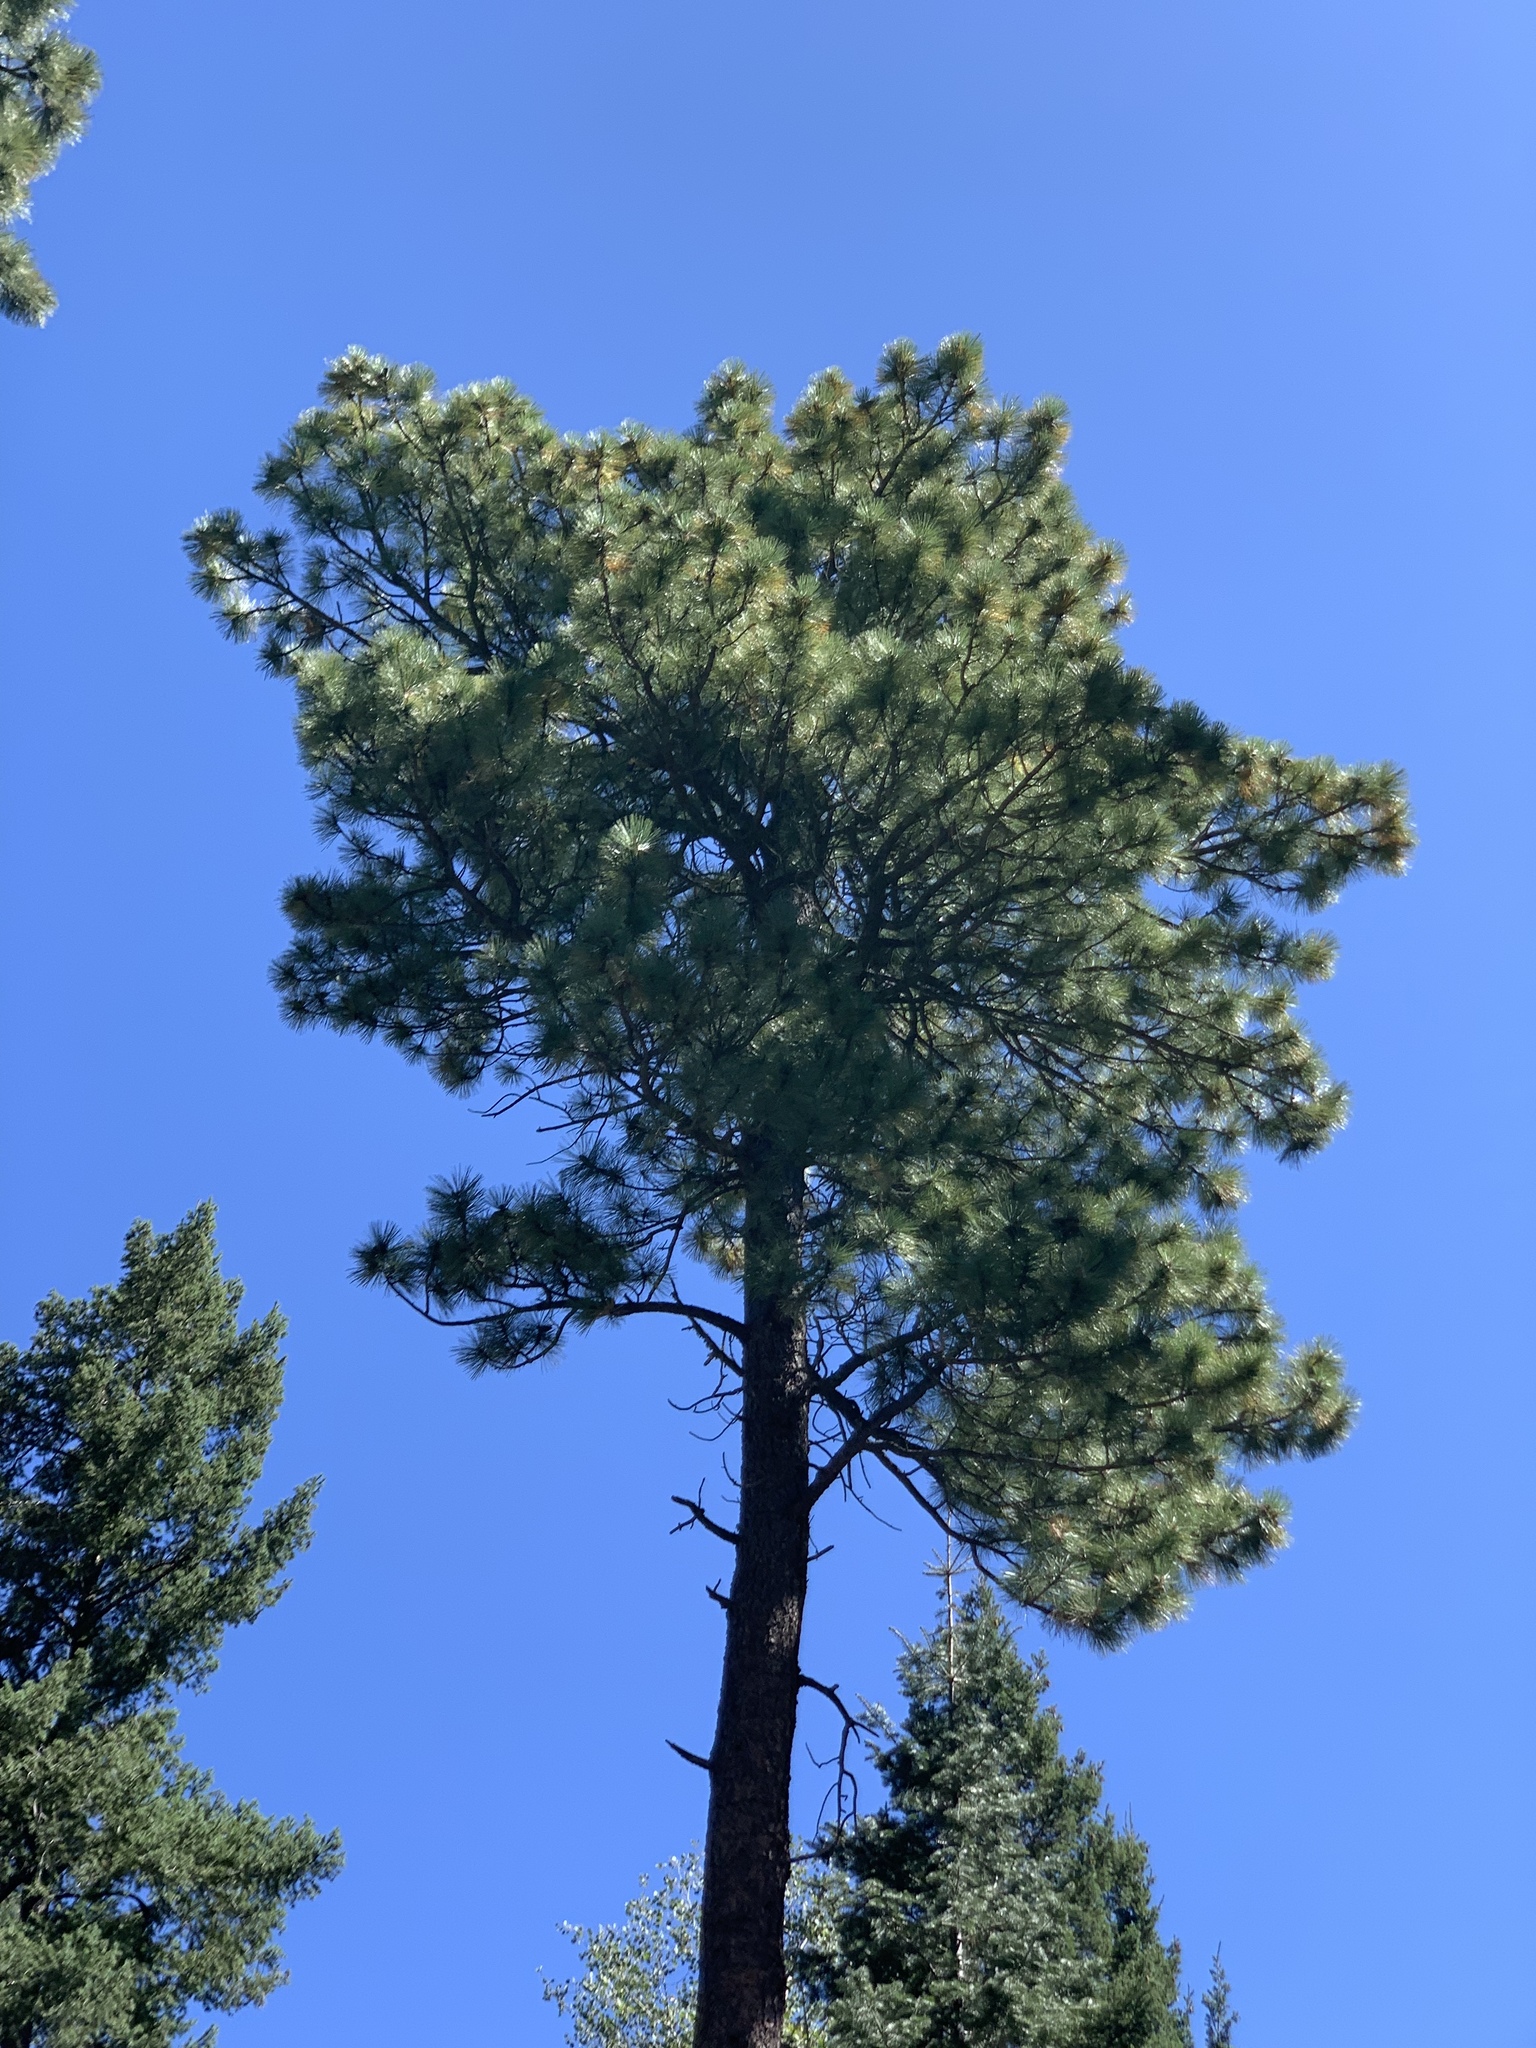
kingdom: Plantae
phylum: Tracheophyta
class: Pinopsida
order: Pinales
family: Pinaceae
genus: Pinus
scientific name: Pinus ponderosa
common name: Western yellow-pine
